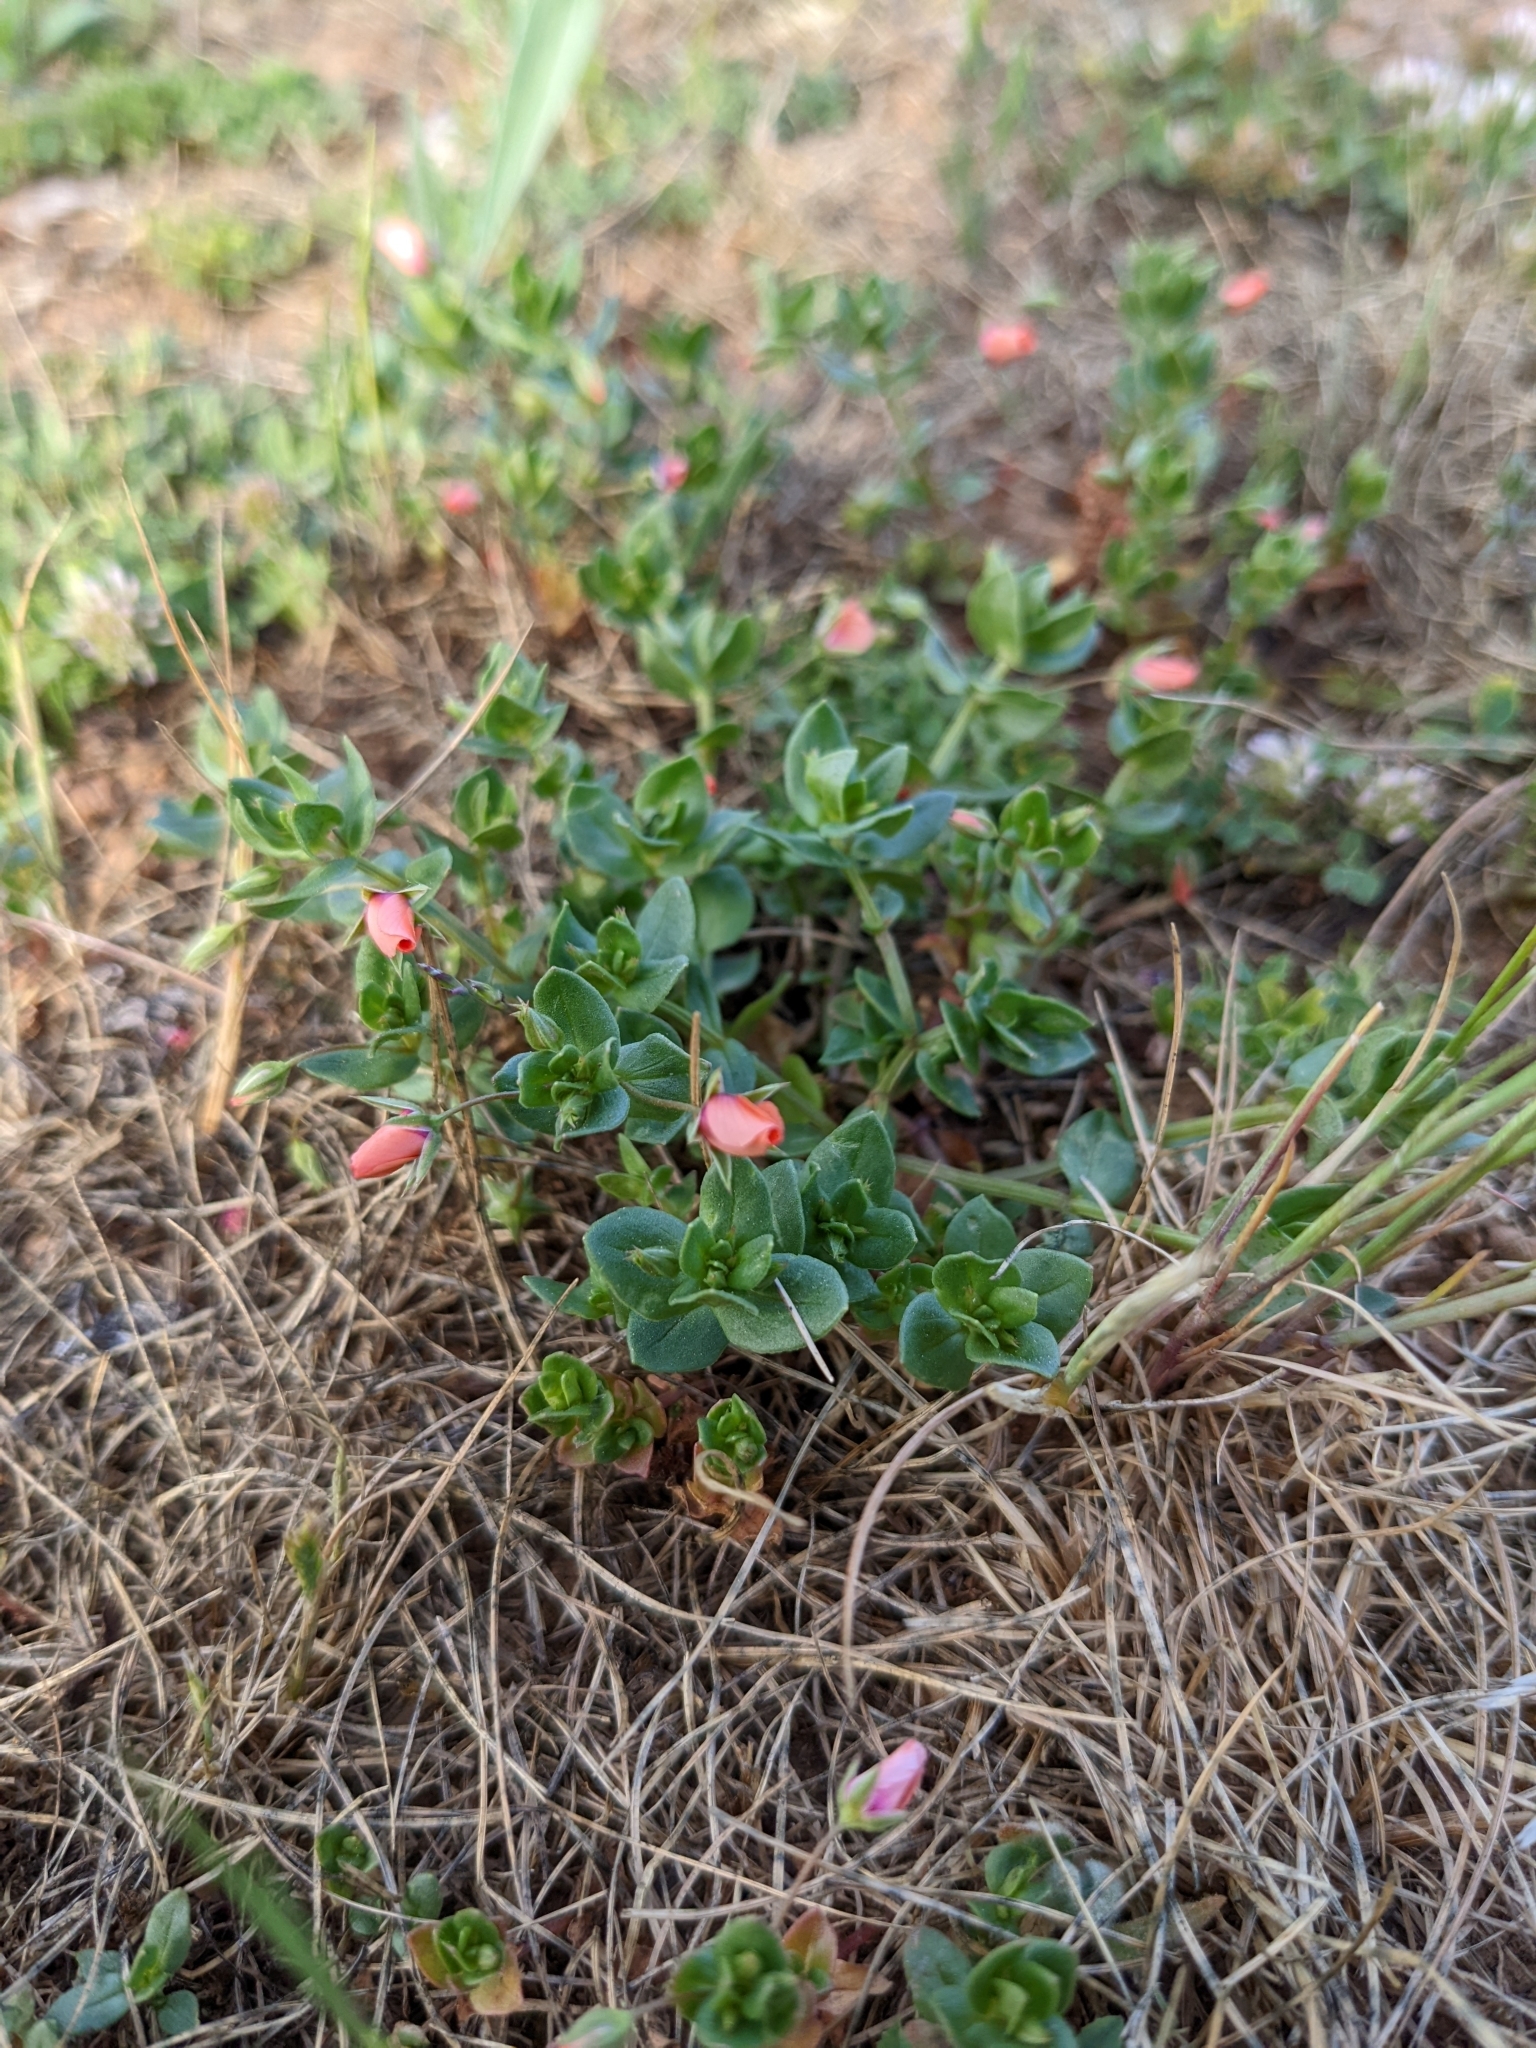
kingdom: Plantae
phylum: Tracheophyta
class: Magnoliopsida
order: Ericales
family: Primulaceae
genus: Lysimachia
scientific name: Lysimachia arvensis
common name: Scarlet pimpernel
